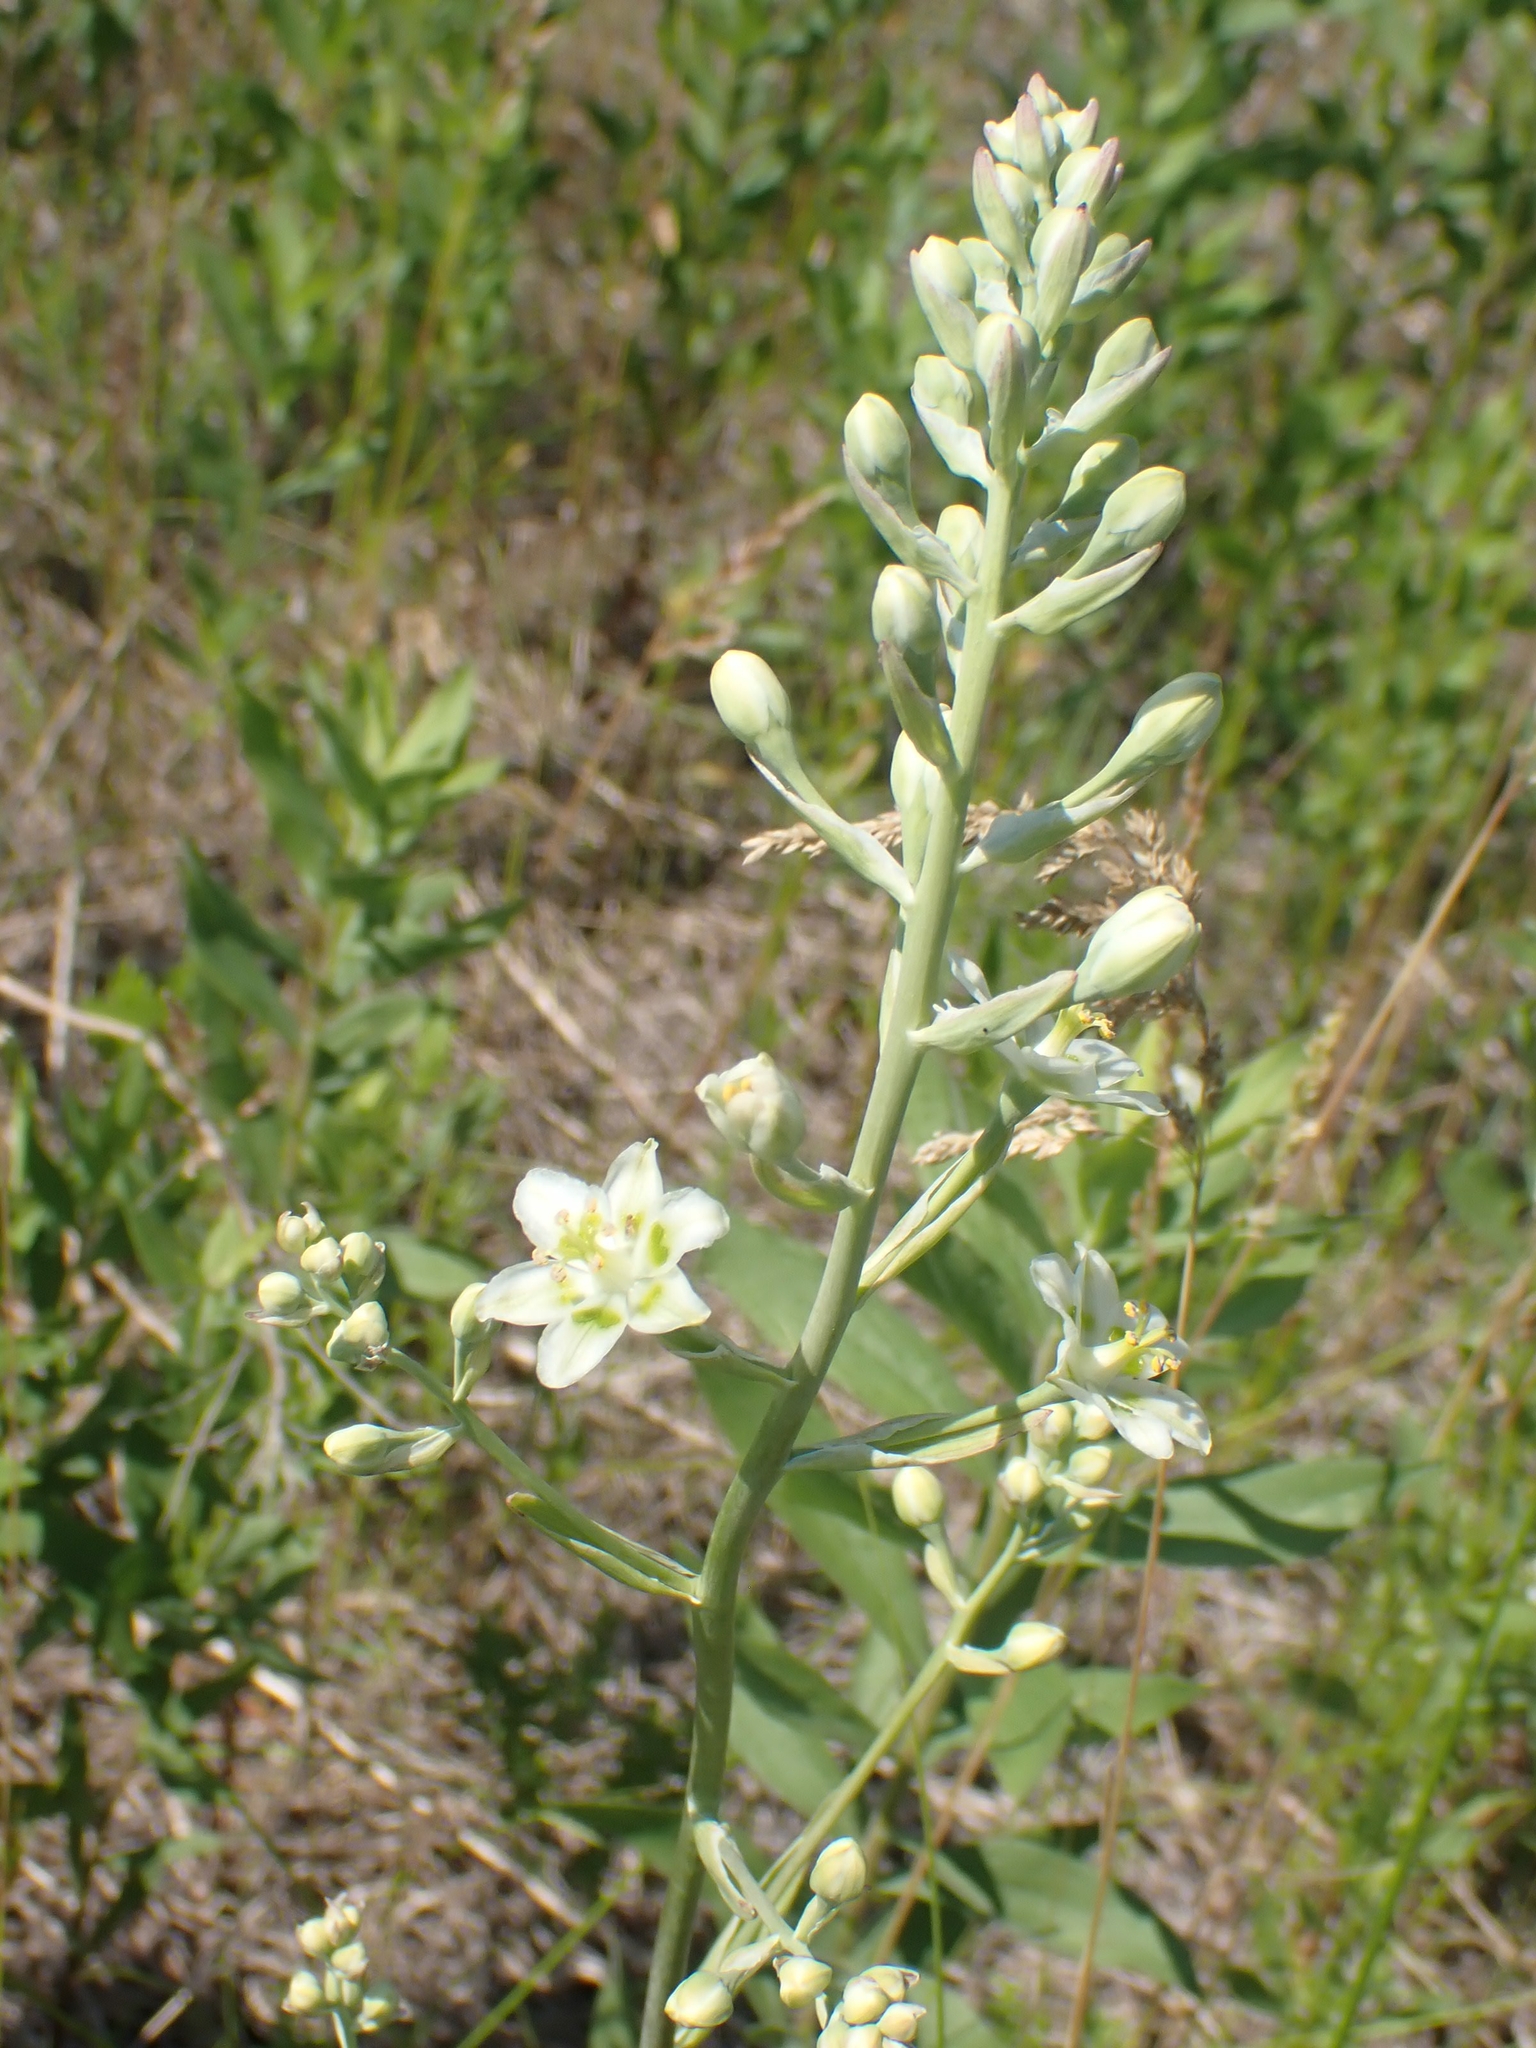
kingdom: Plantae
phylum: Tracheophyta
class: Liliopsida
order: Liliales
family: Melanthiaceae
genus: Anticlea
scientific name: Anticlea elegans
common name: Mountain death camas
